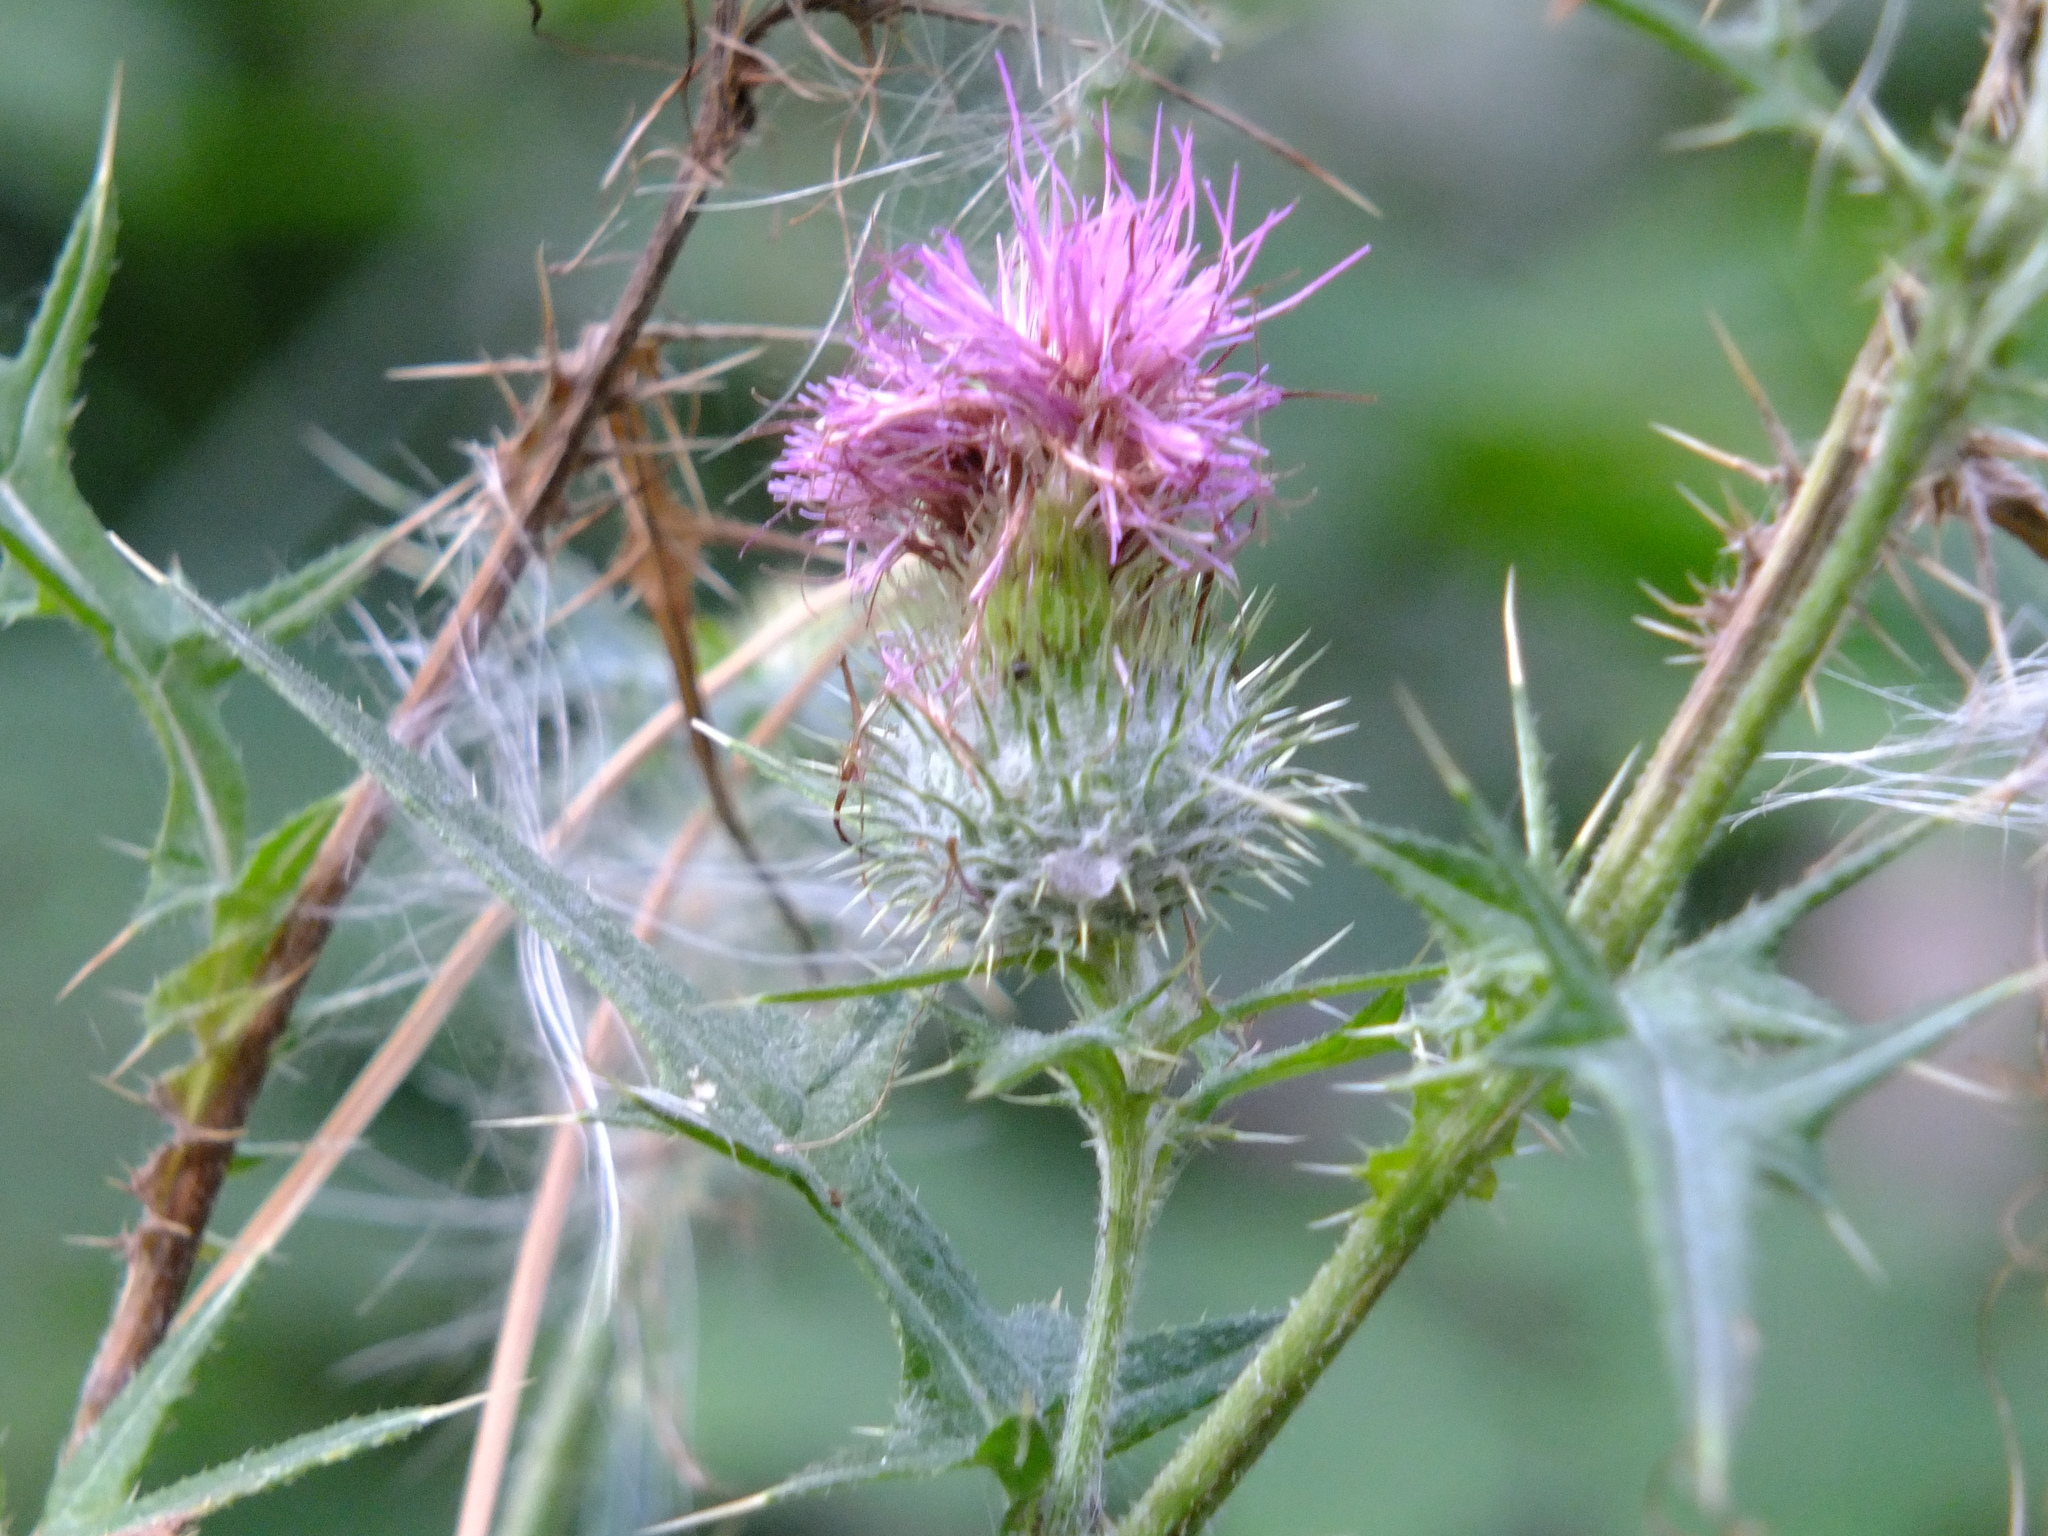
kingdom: Plantae
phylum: Tracheophyta
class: Magnoliopsida
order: Asterales
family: Asteraceae
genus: Cirsium
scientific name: Cirsium vulgare
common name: Bull thistle
